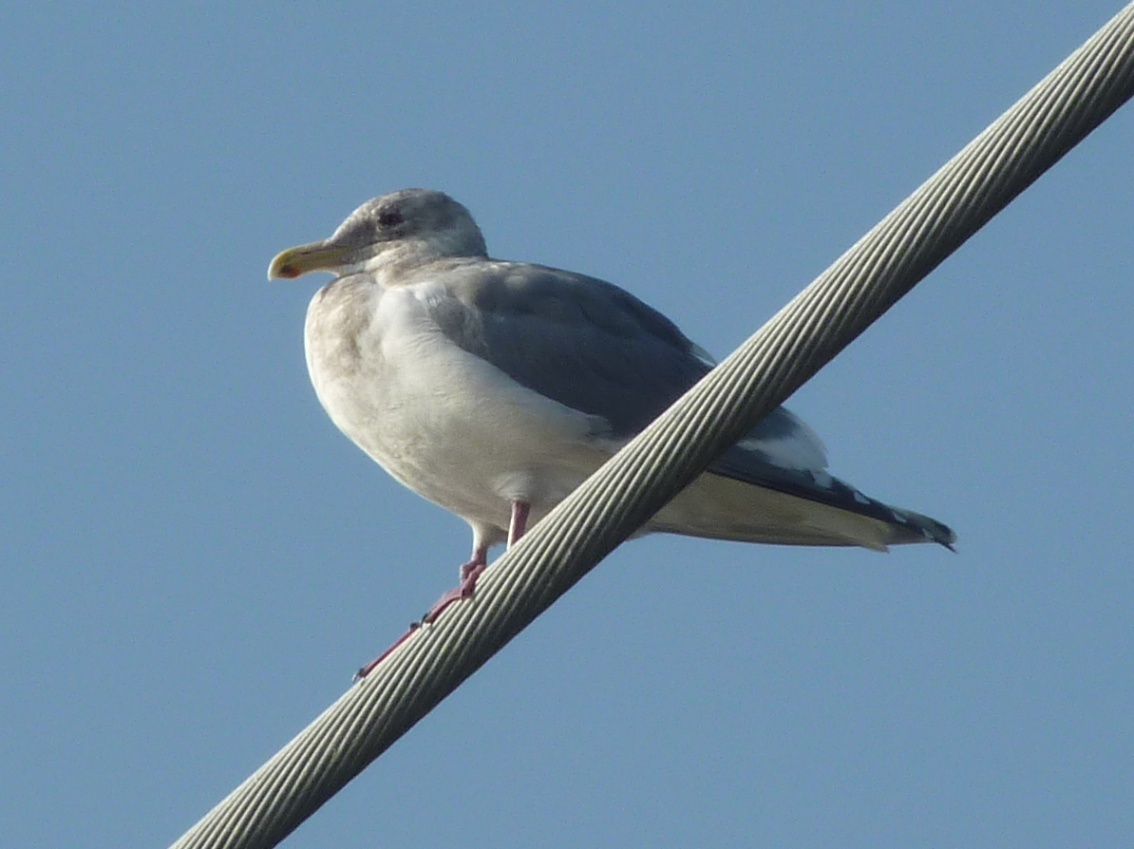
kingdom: Animalia
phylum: Chordata
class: Aves
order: Charadriiformes
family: Laridae
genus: Larus
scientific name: Larus californicus
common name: California gull
